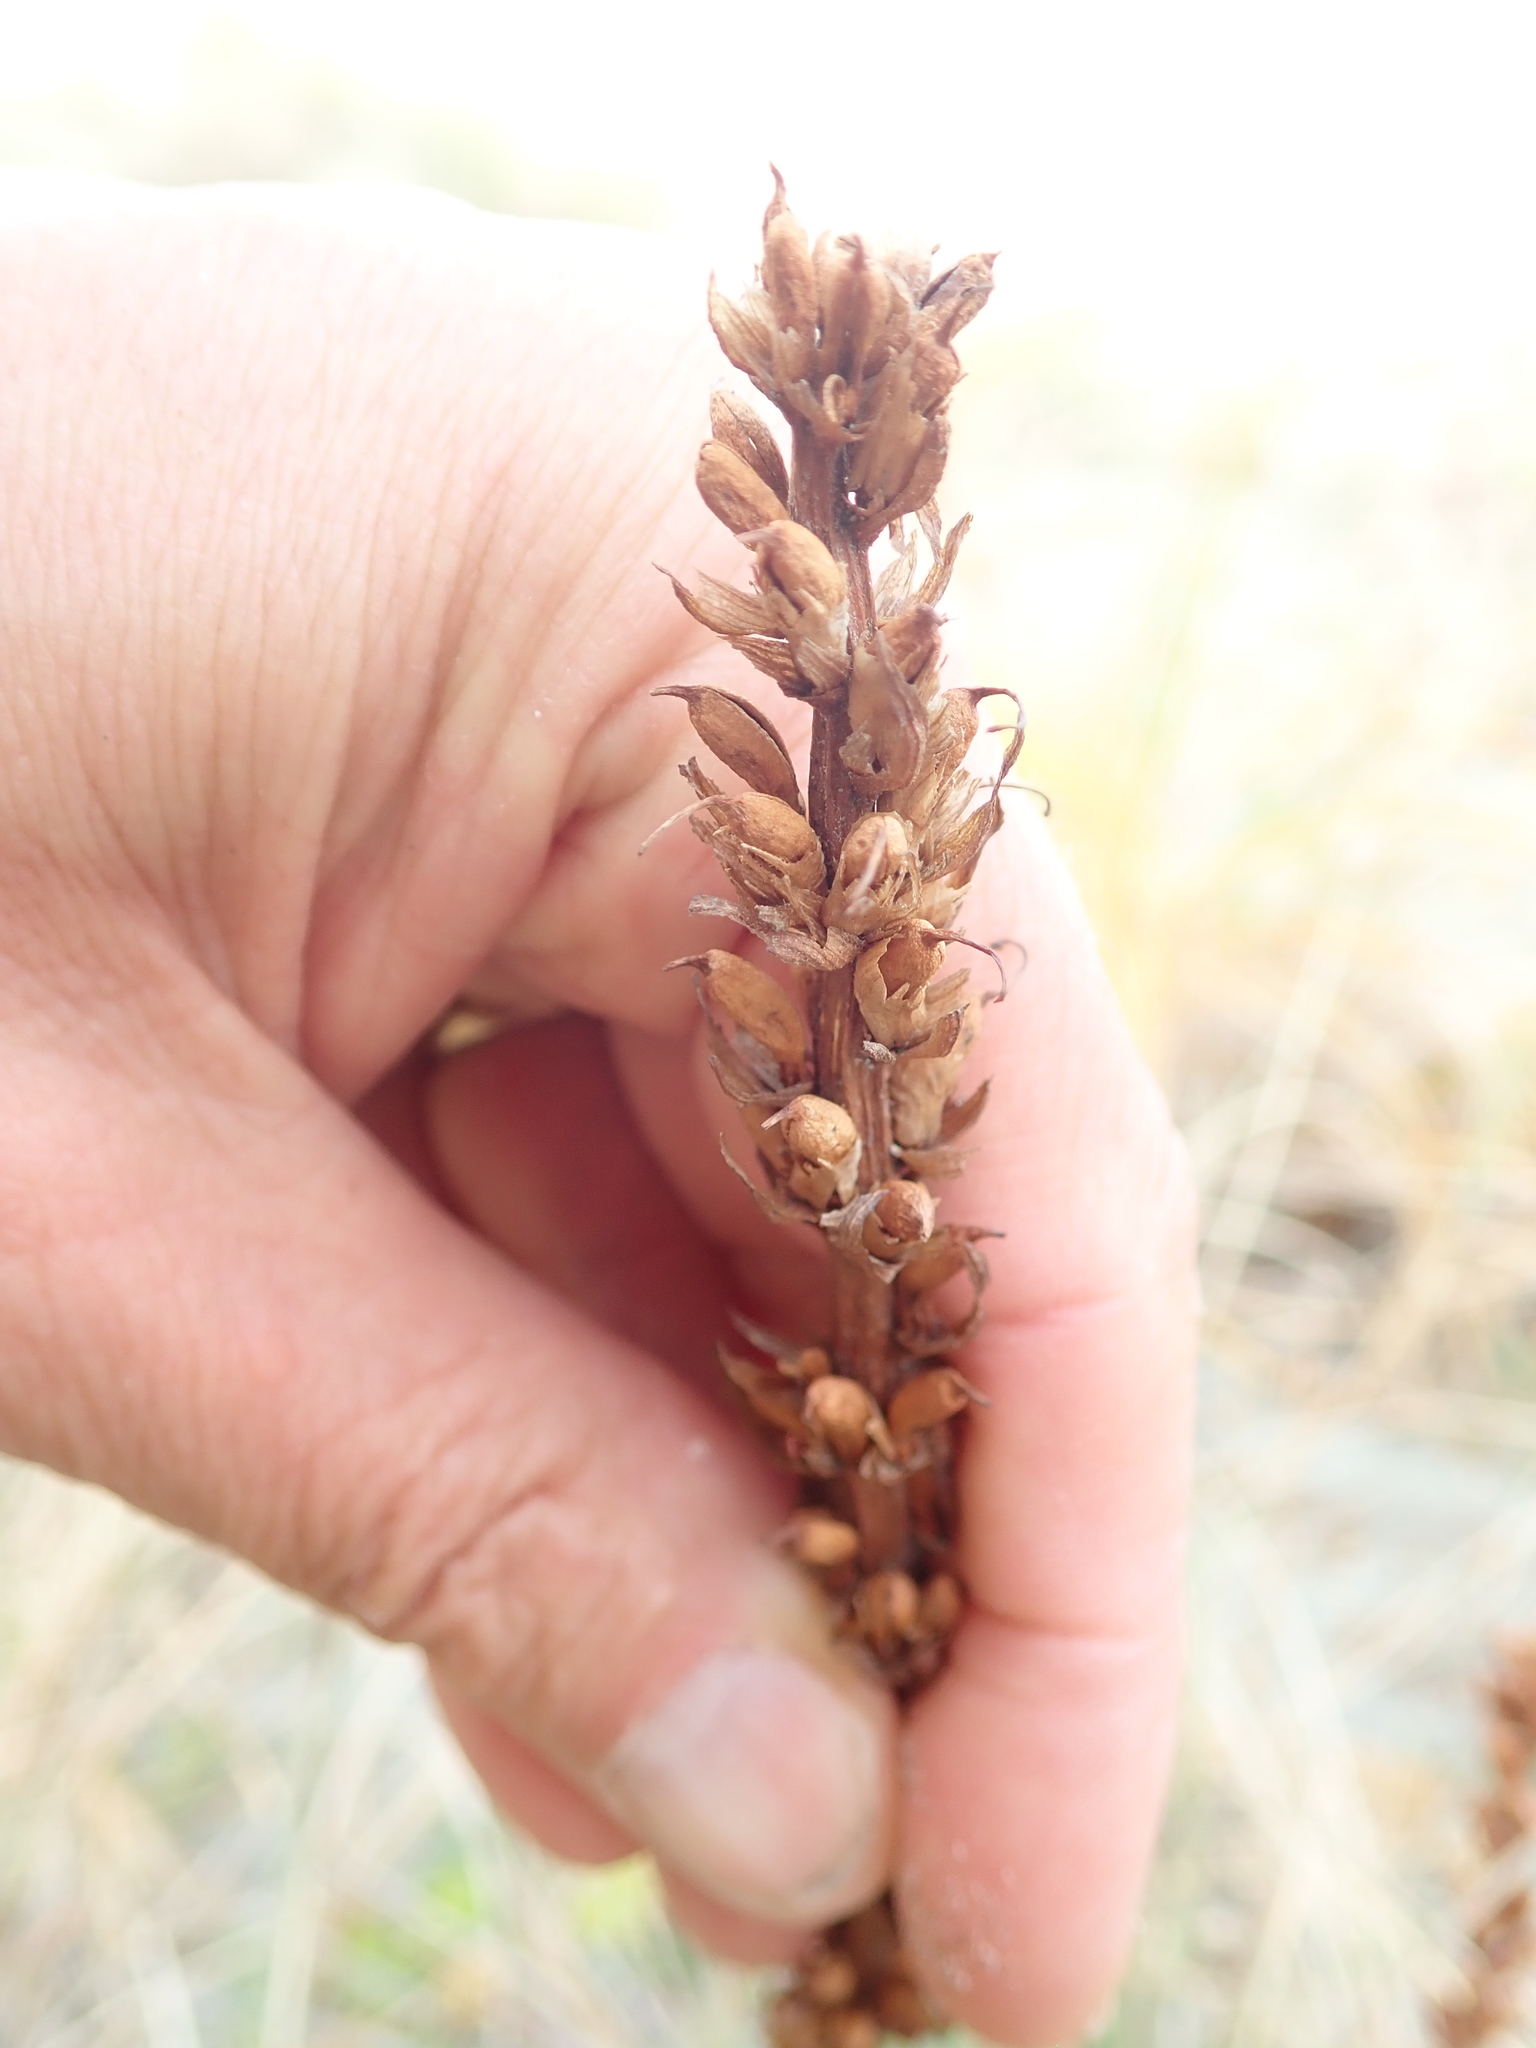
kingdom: Plantae
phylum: Tracheophyta
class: Magnoliopsida
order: Lamiales
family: Orobanchaceae
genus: Orobanche
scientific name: Orobanche minor
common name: Common broomrape
